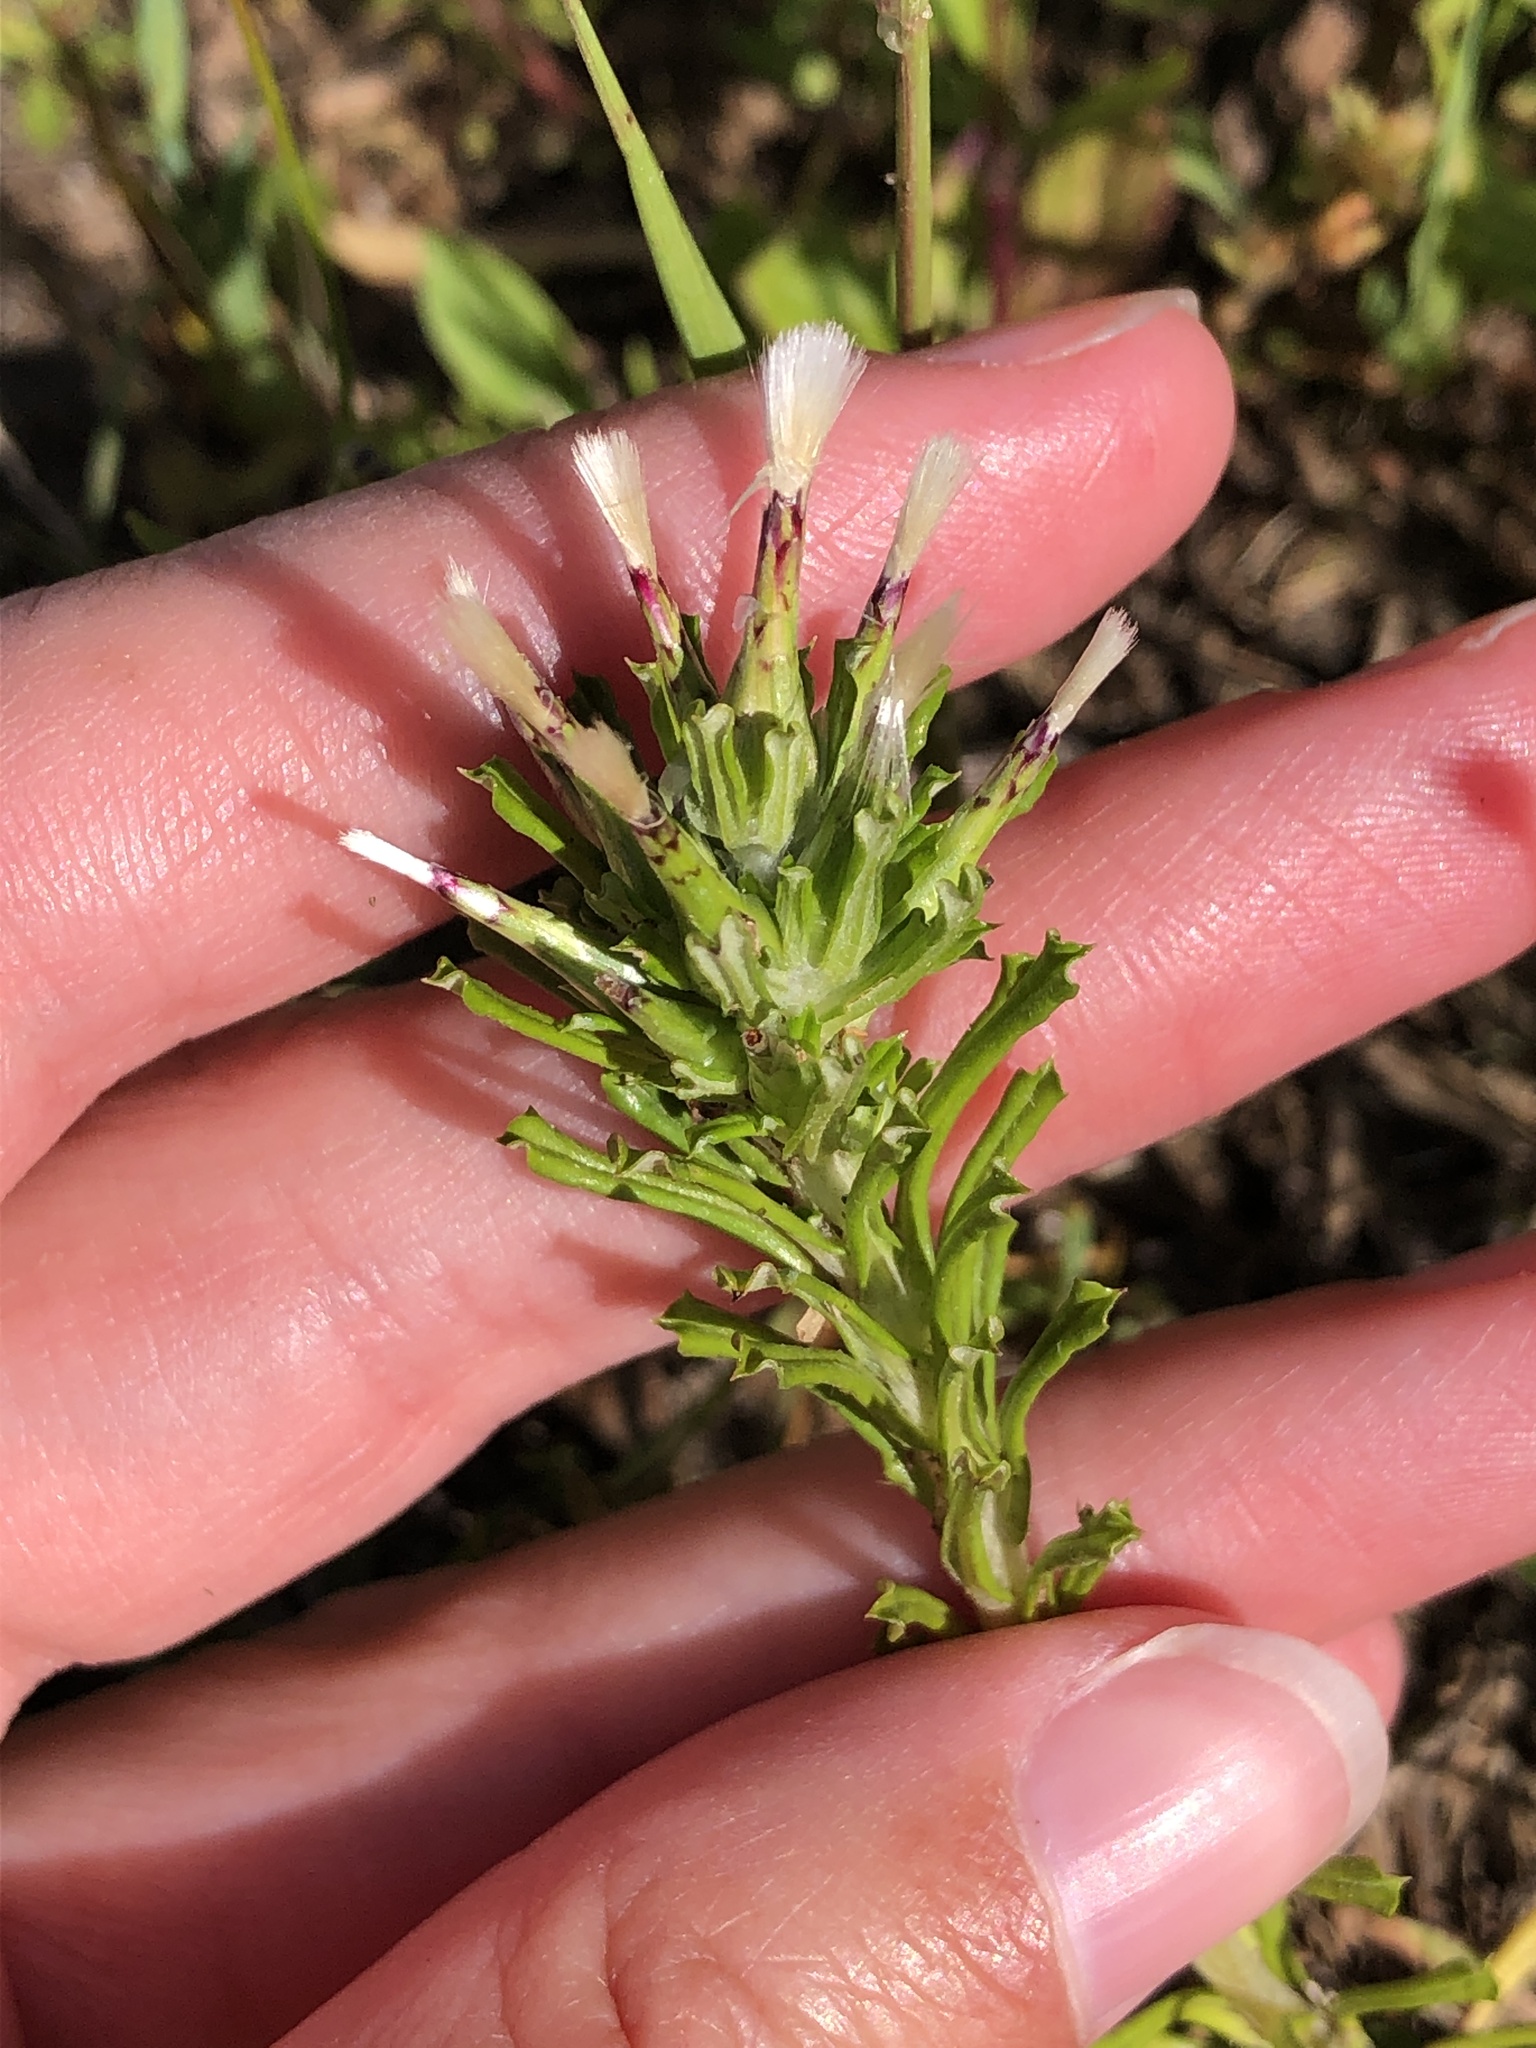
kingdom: Plantae
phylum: Tracheophyta
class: Magnoliopsida
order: Asterales
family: Asteraceae
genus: Facelis
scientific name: Facelis retusa
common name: Annual trampweed
